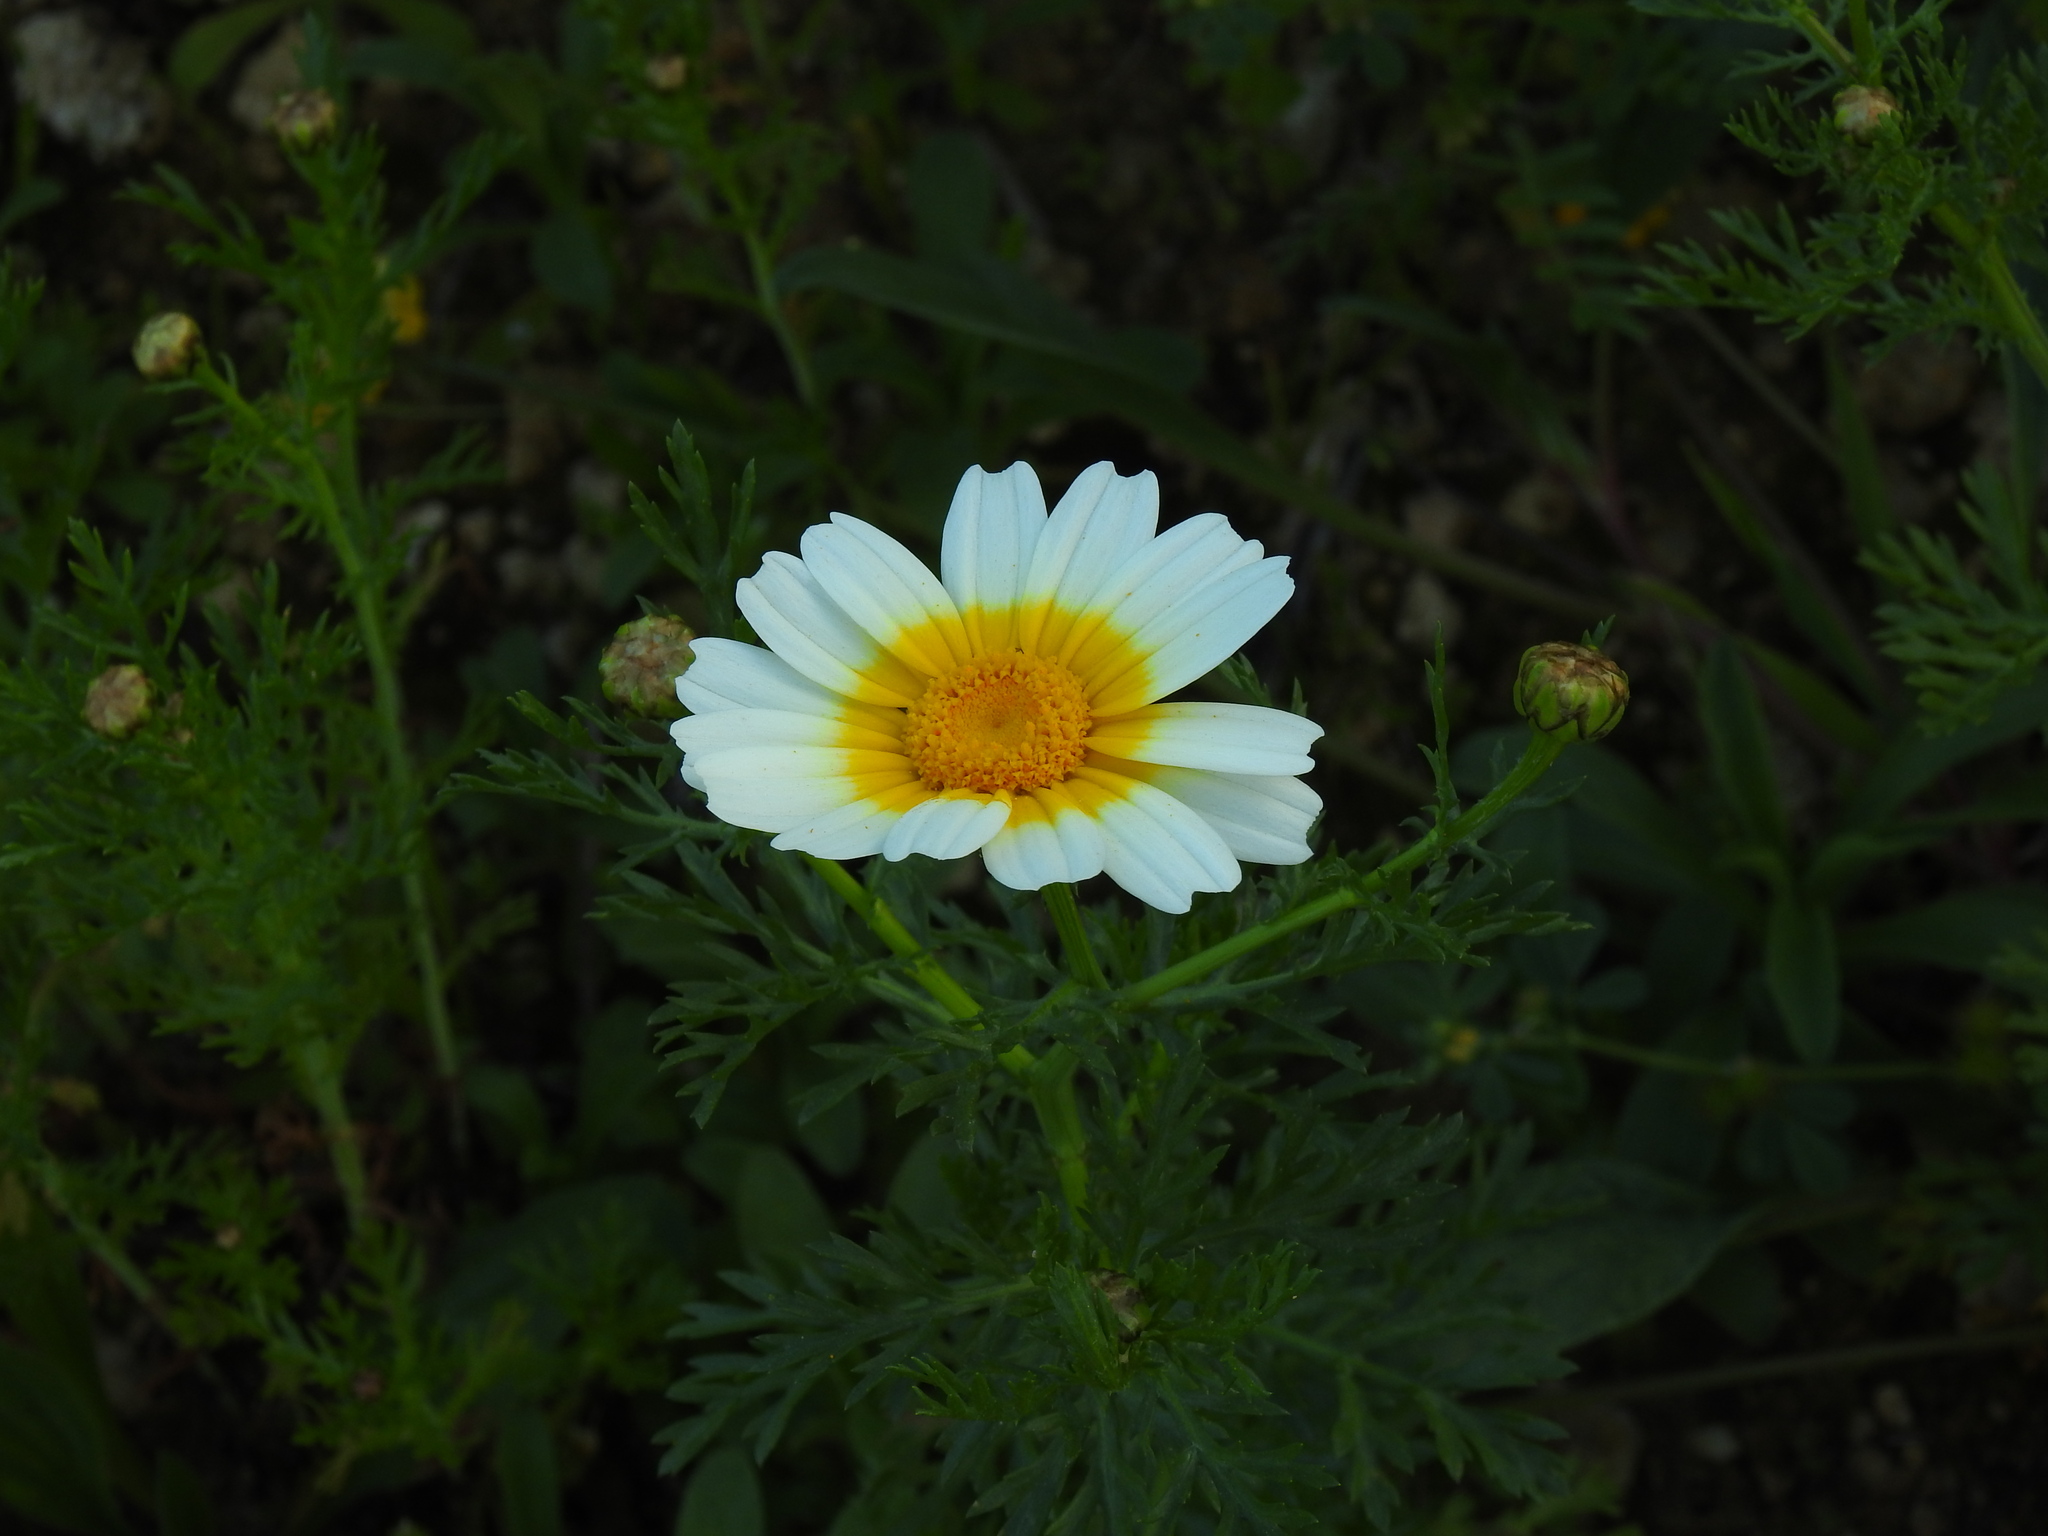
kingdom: Plantae
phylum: Tracheophyta
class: Magnoliopsida
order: Asterales
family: Asteraceae
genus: Glebionis
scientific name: Glebionis coronaria
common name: Crowndaisy
